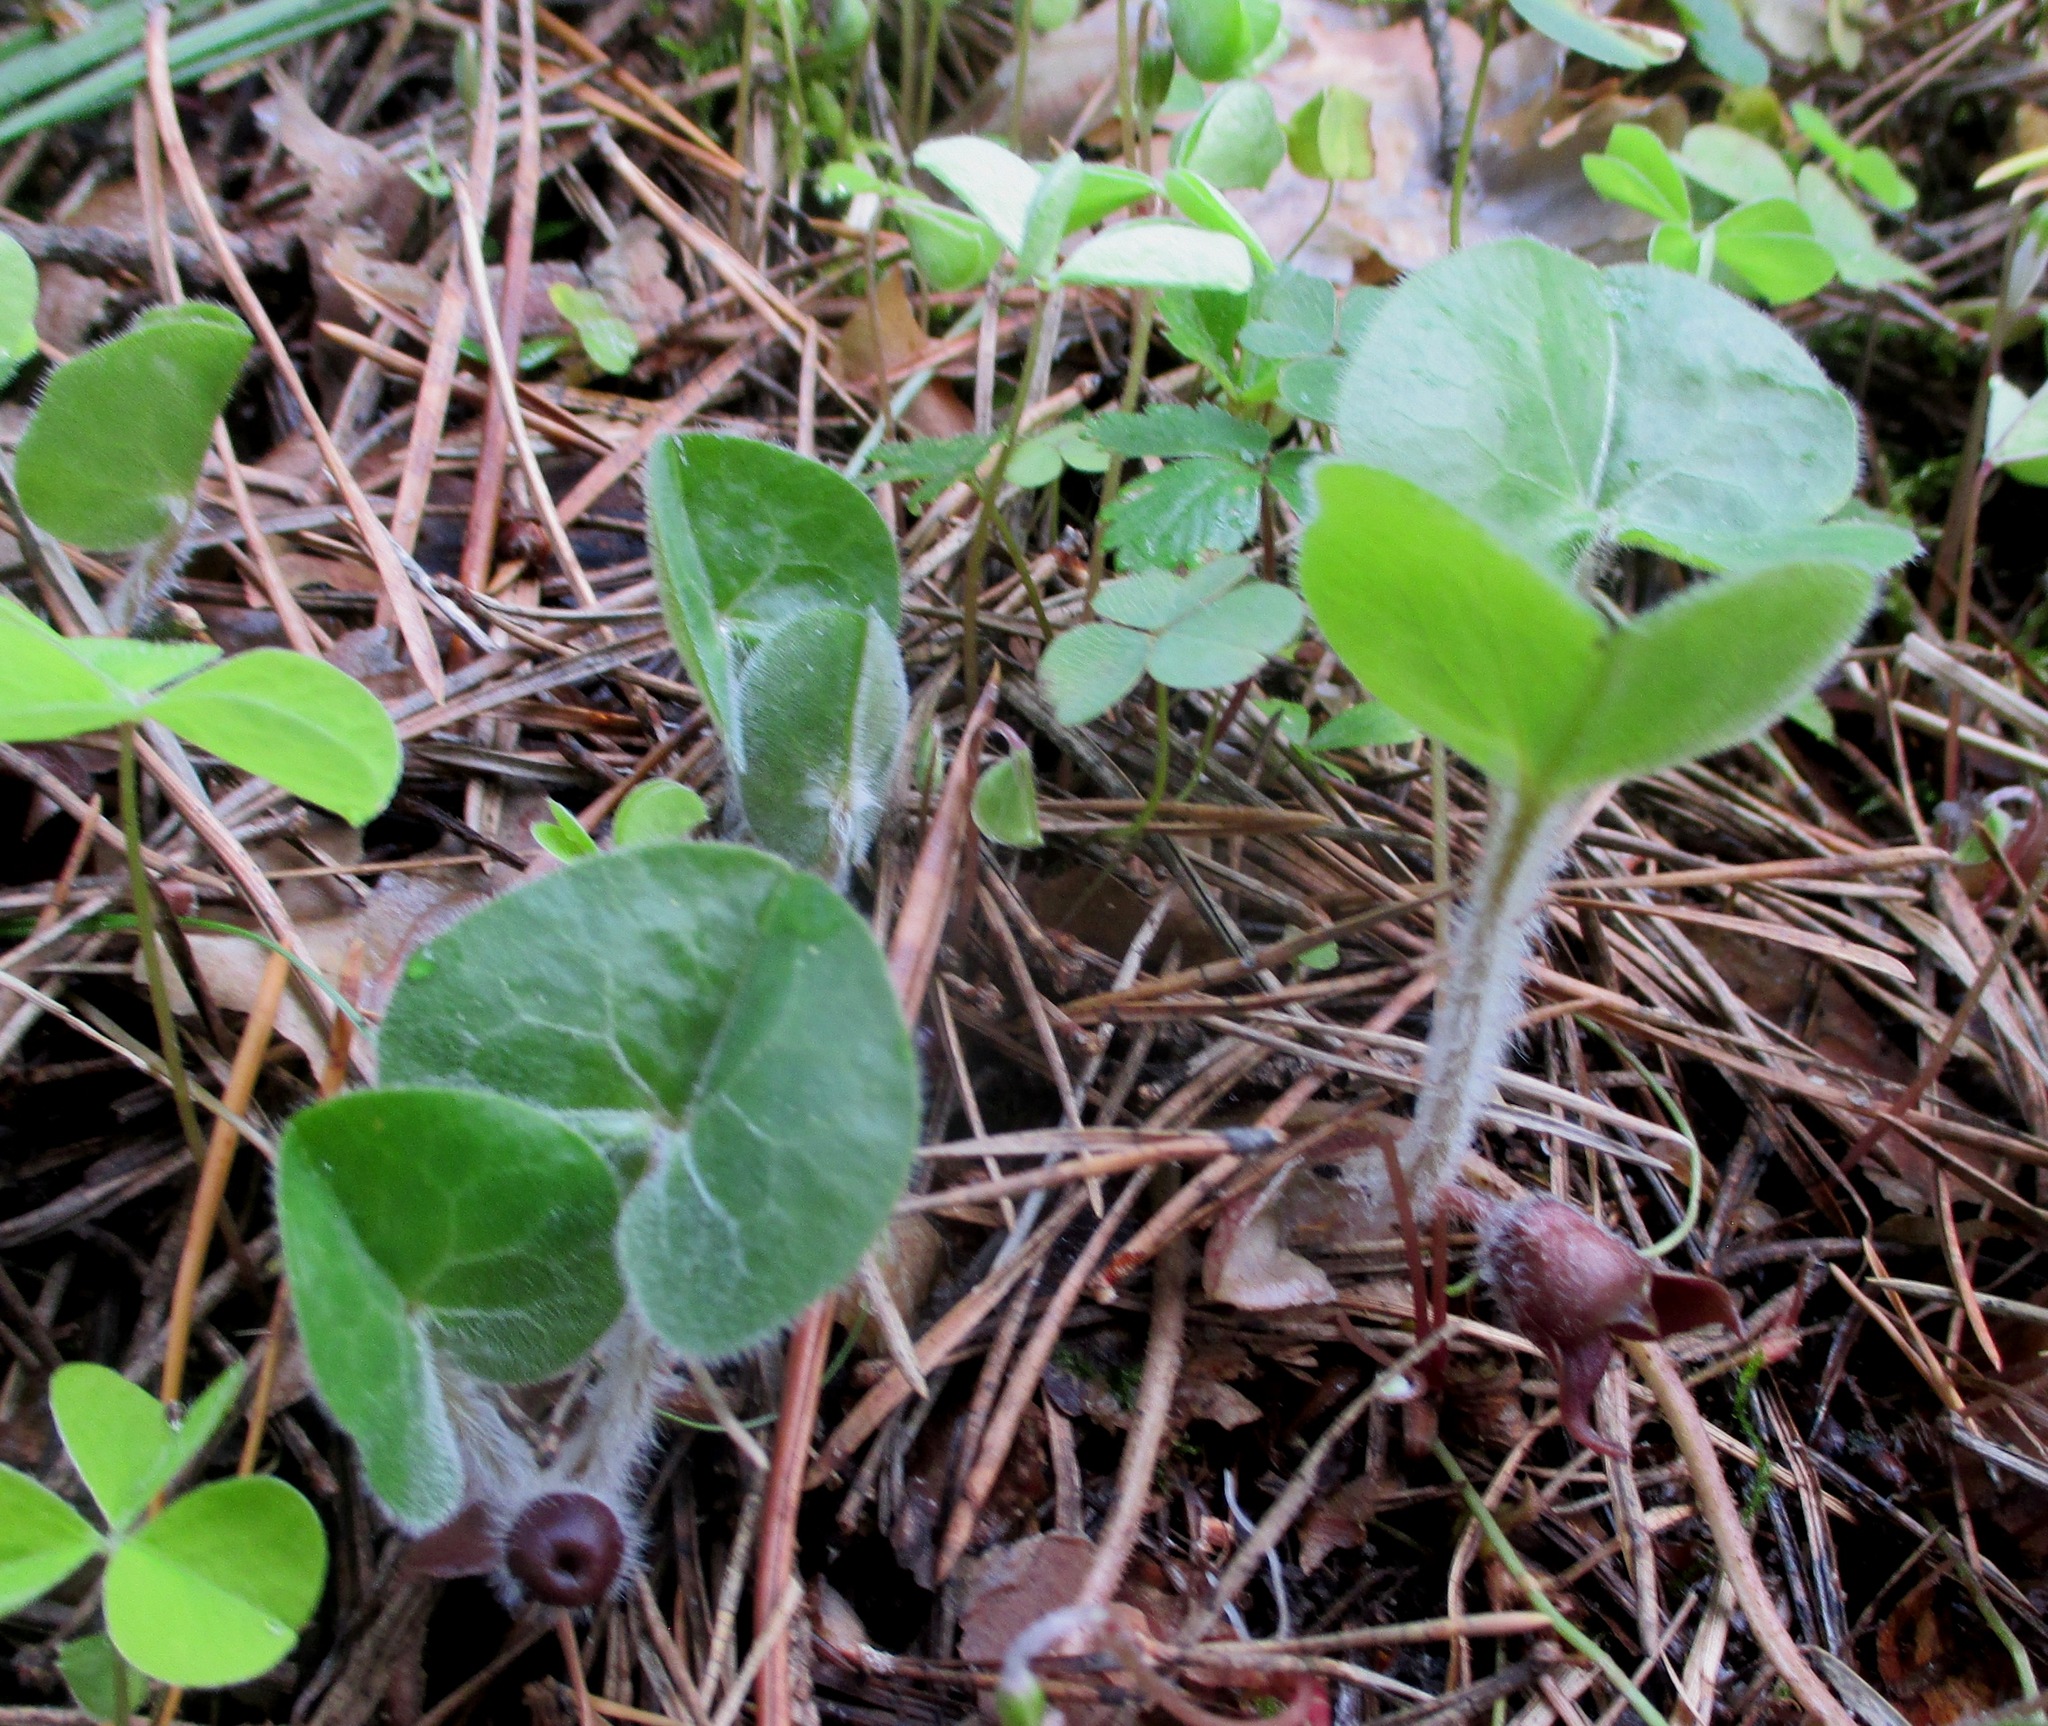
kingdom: Plantae
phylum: Tracheophyta
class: Magnoliopsida
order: Piperales
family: Aristolochiaceae
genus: Asarum
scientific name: Asarum europaeum
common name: Asarabacca
